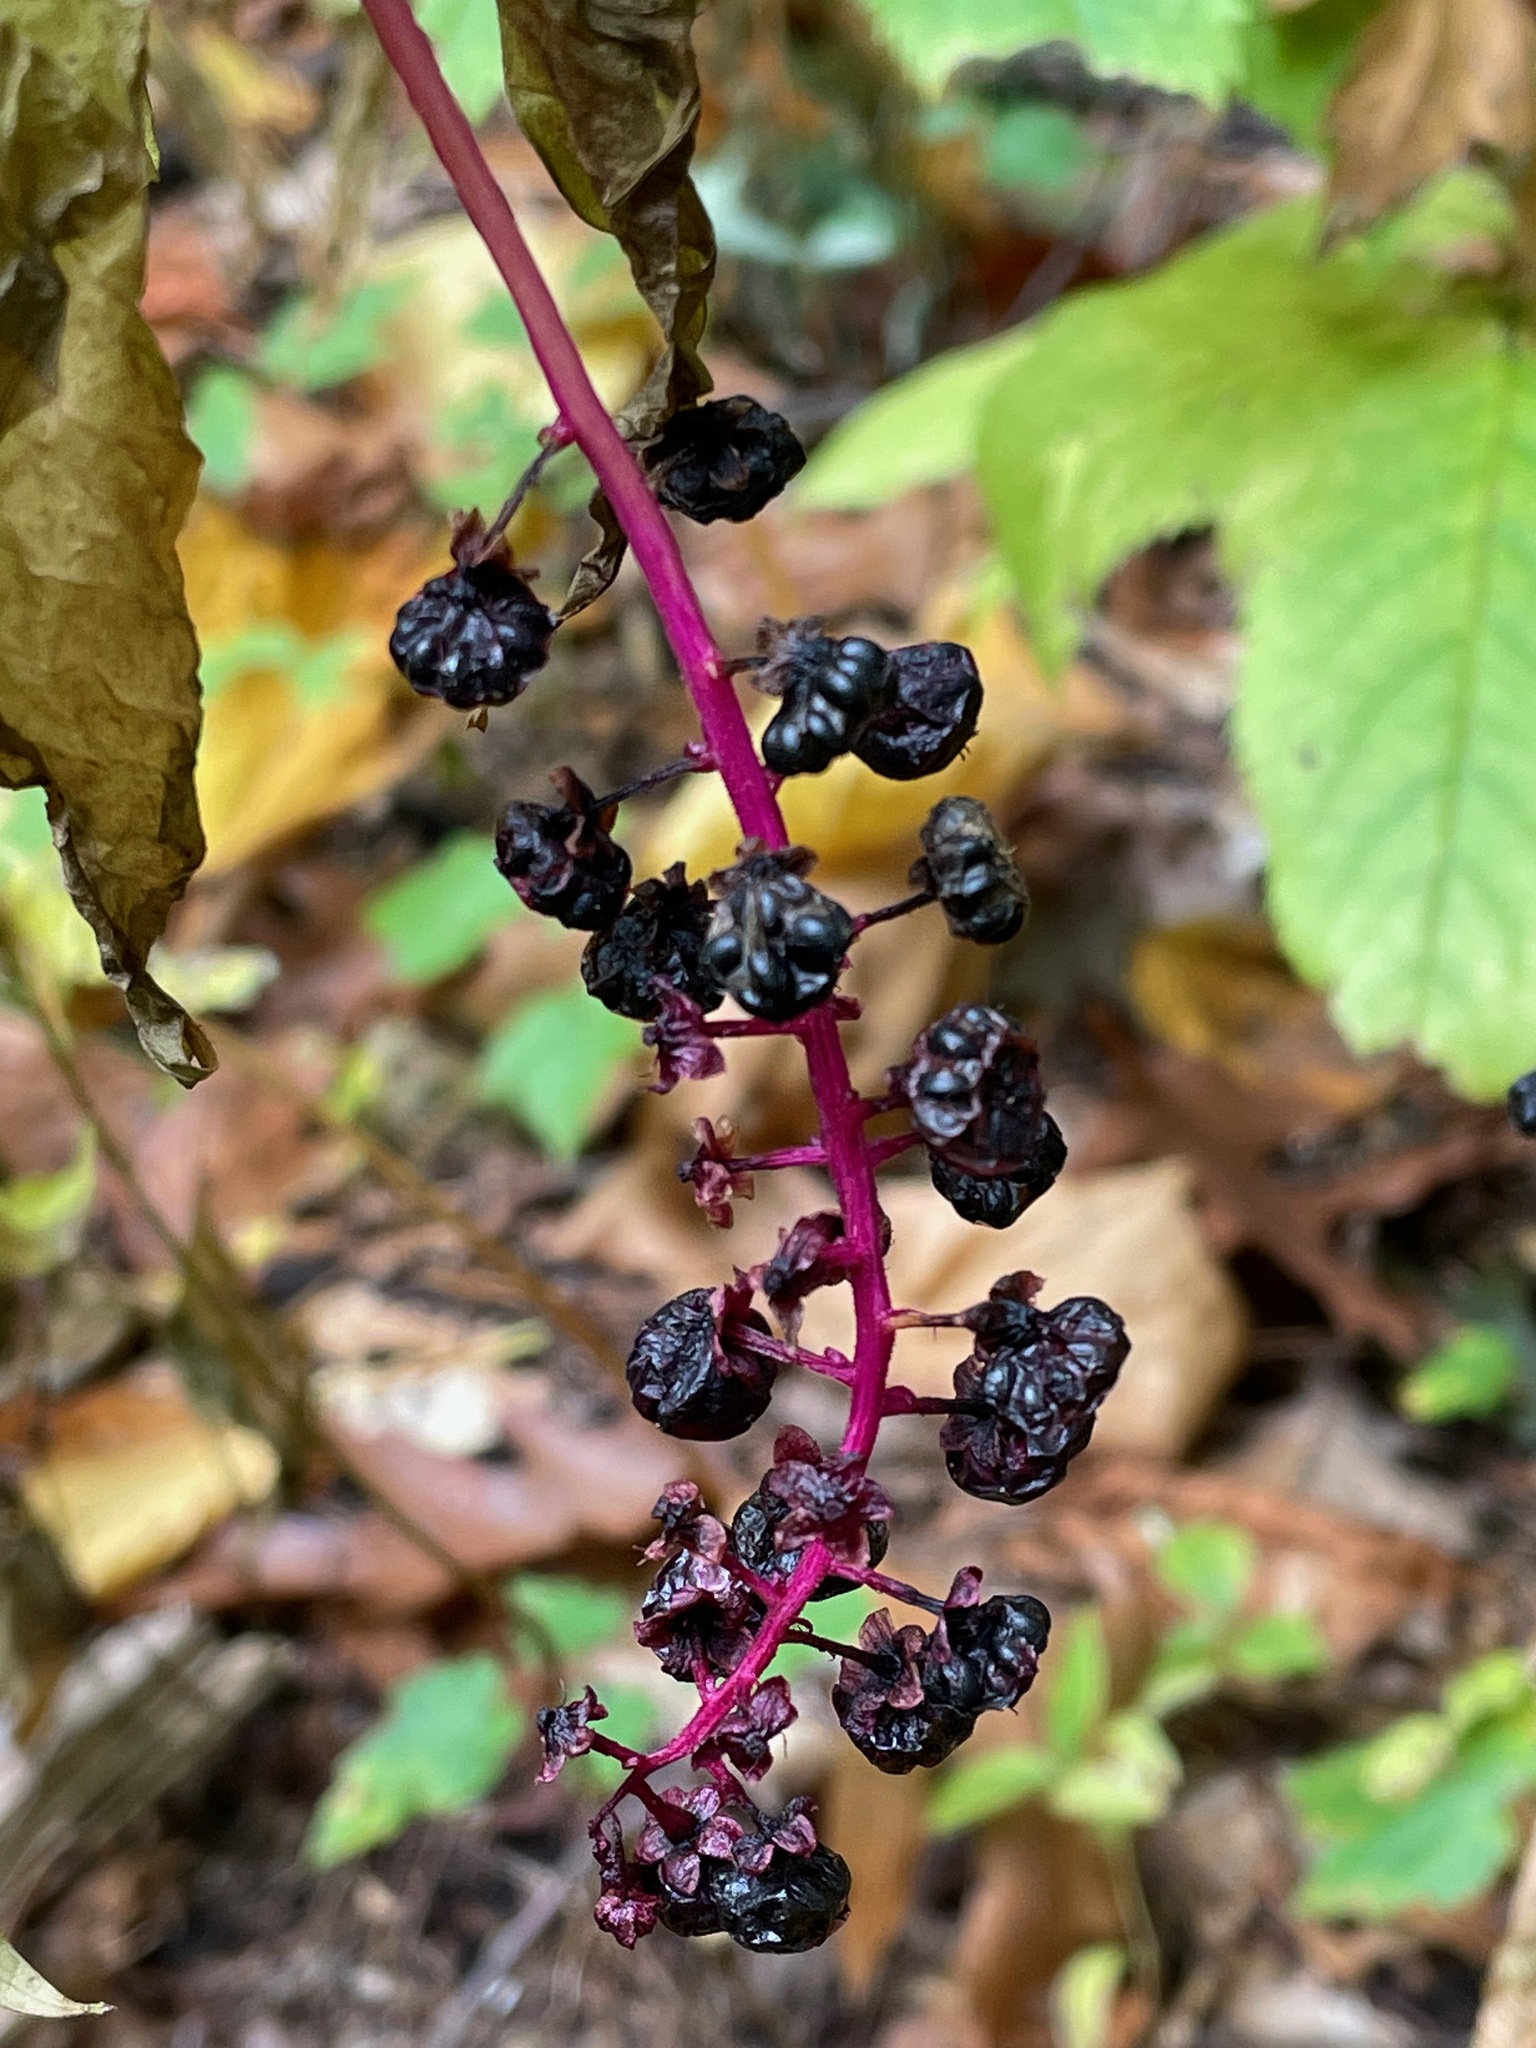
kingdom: Plantae
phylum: Tracheophyta
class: Magnoliopsida
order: Caryophyllales
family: Phytolaccaceae
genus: Phytolacca
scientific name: Phytolacca americana
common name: American pokeweed
